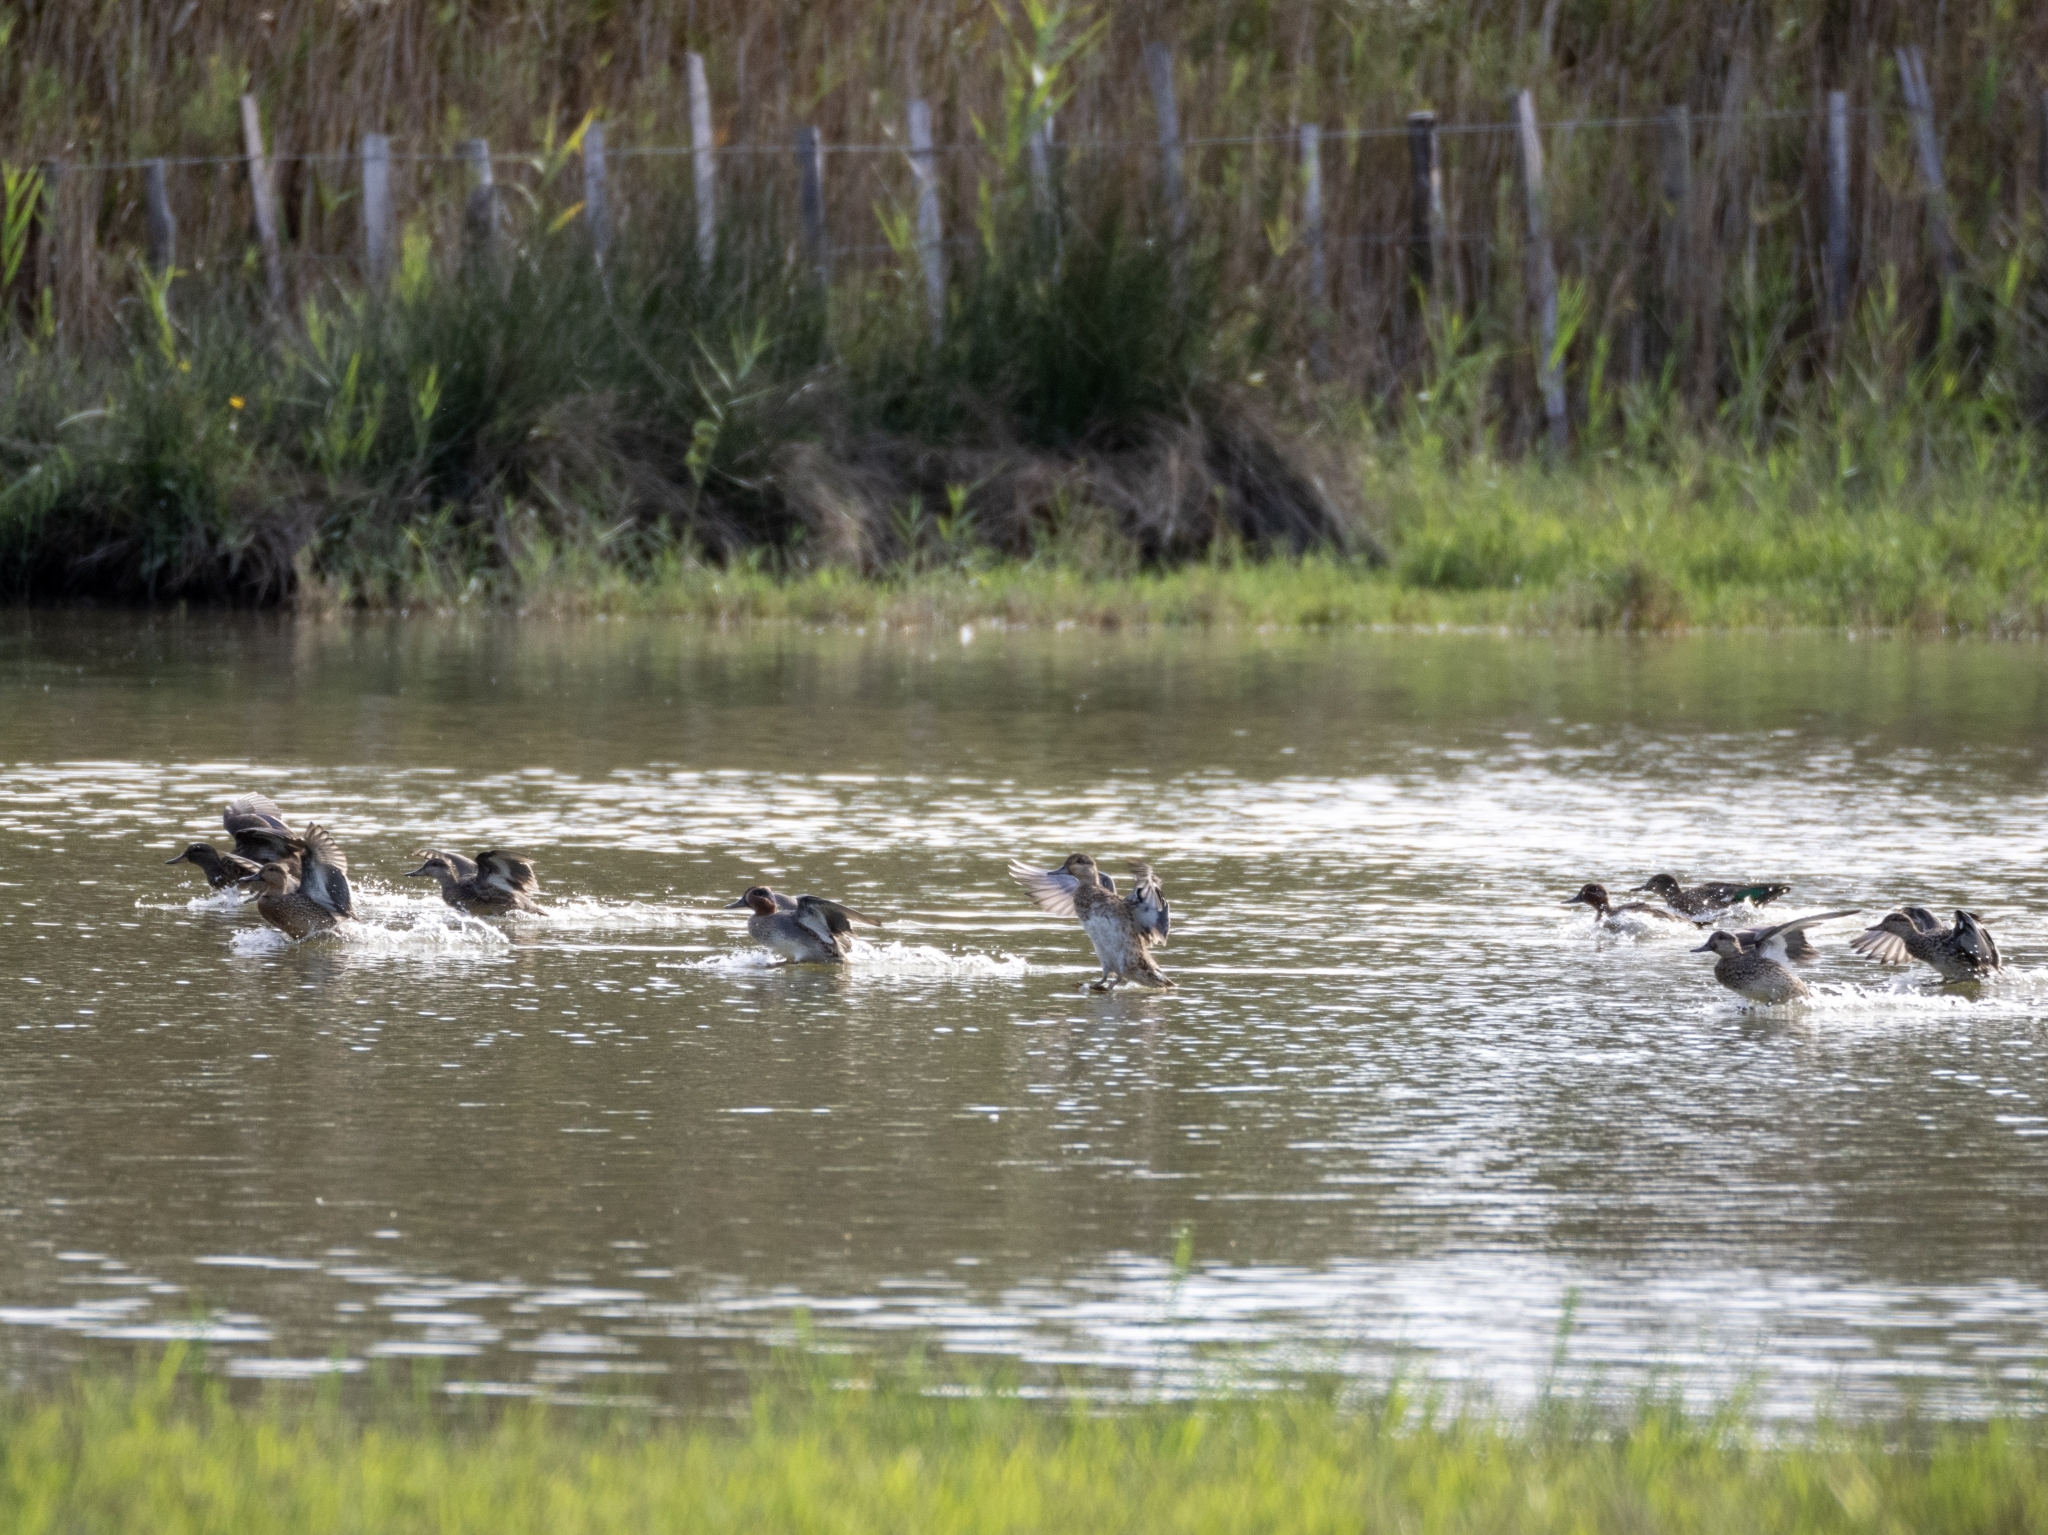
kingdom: Animalia
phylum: Chordata
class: Aves
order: Anseriformes
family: Anatidae
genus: Anas
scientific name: Anas crecca
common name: Eurasian teal
